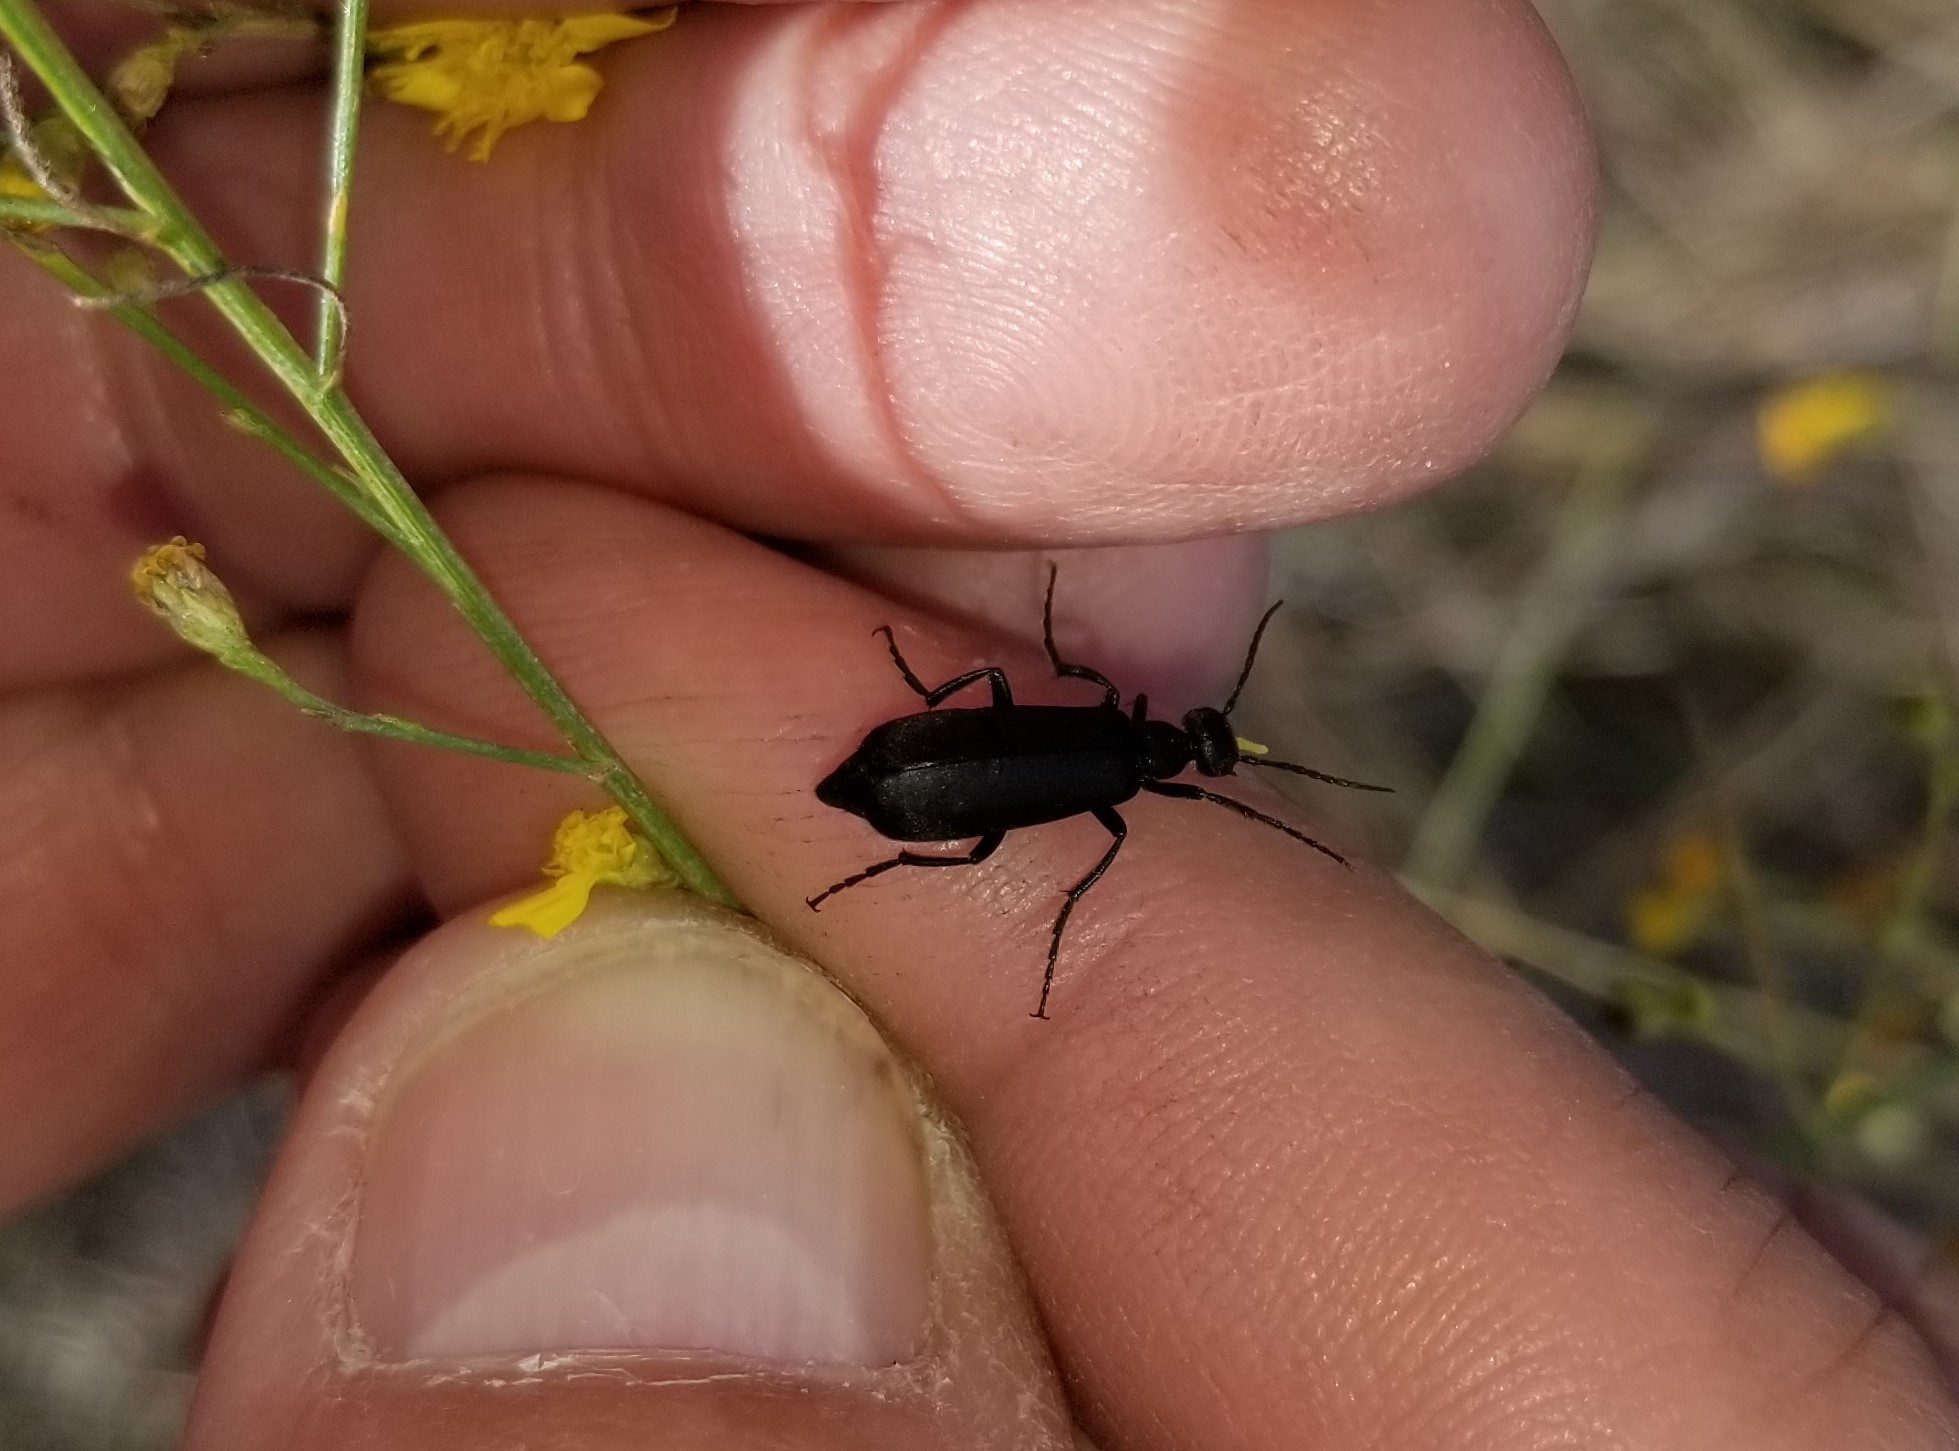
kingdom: Animalia
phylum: Arthropoda
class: Insecta
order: Coleoptera
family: Meloidae
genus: Epicauta
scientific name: Epicauta pensylvanica
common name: Black blister beetle
